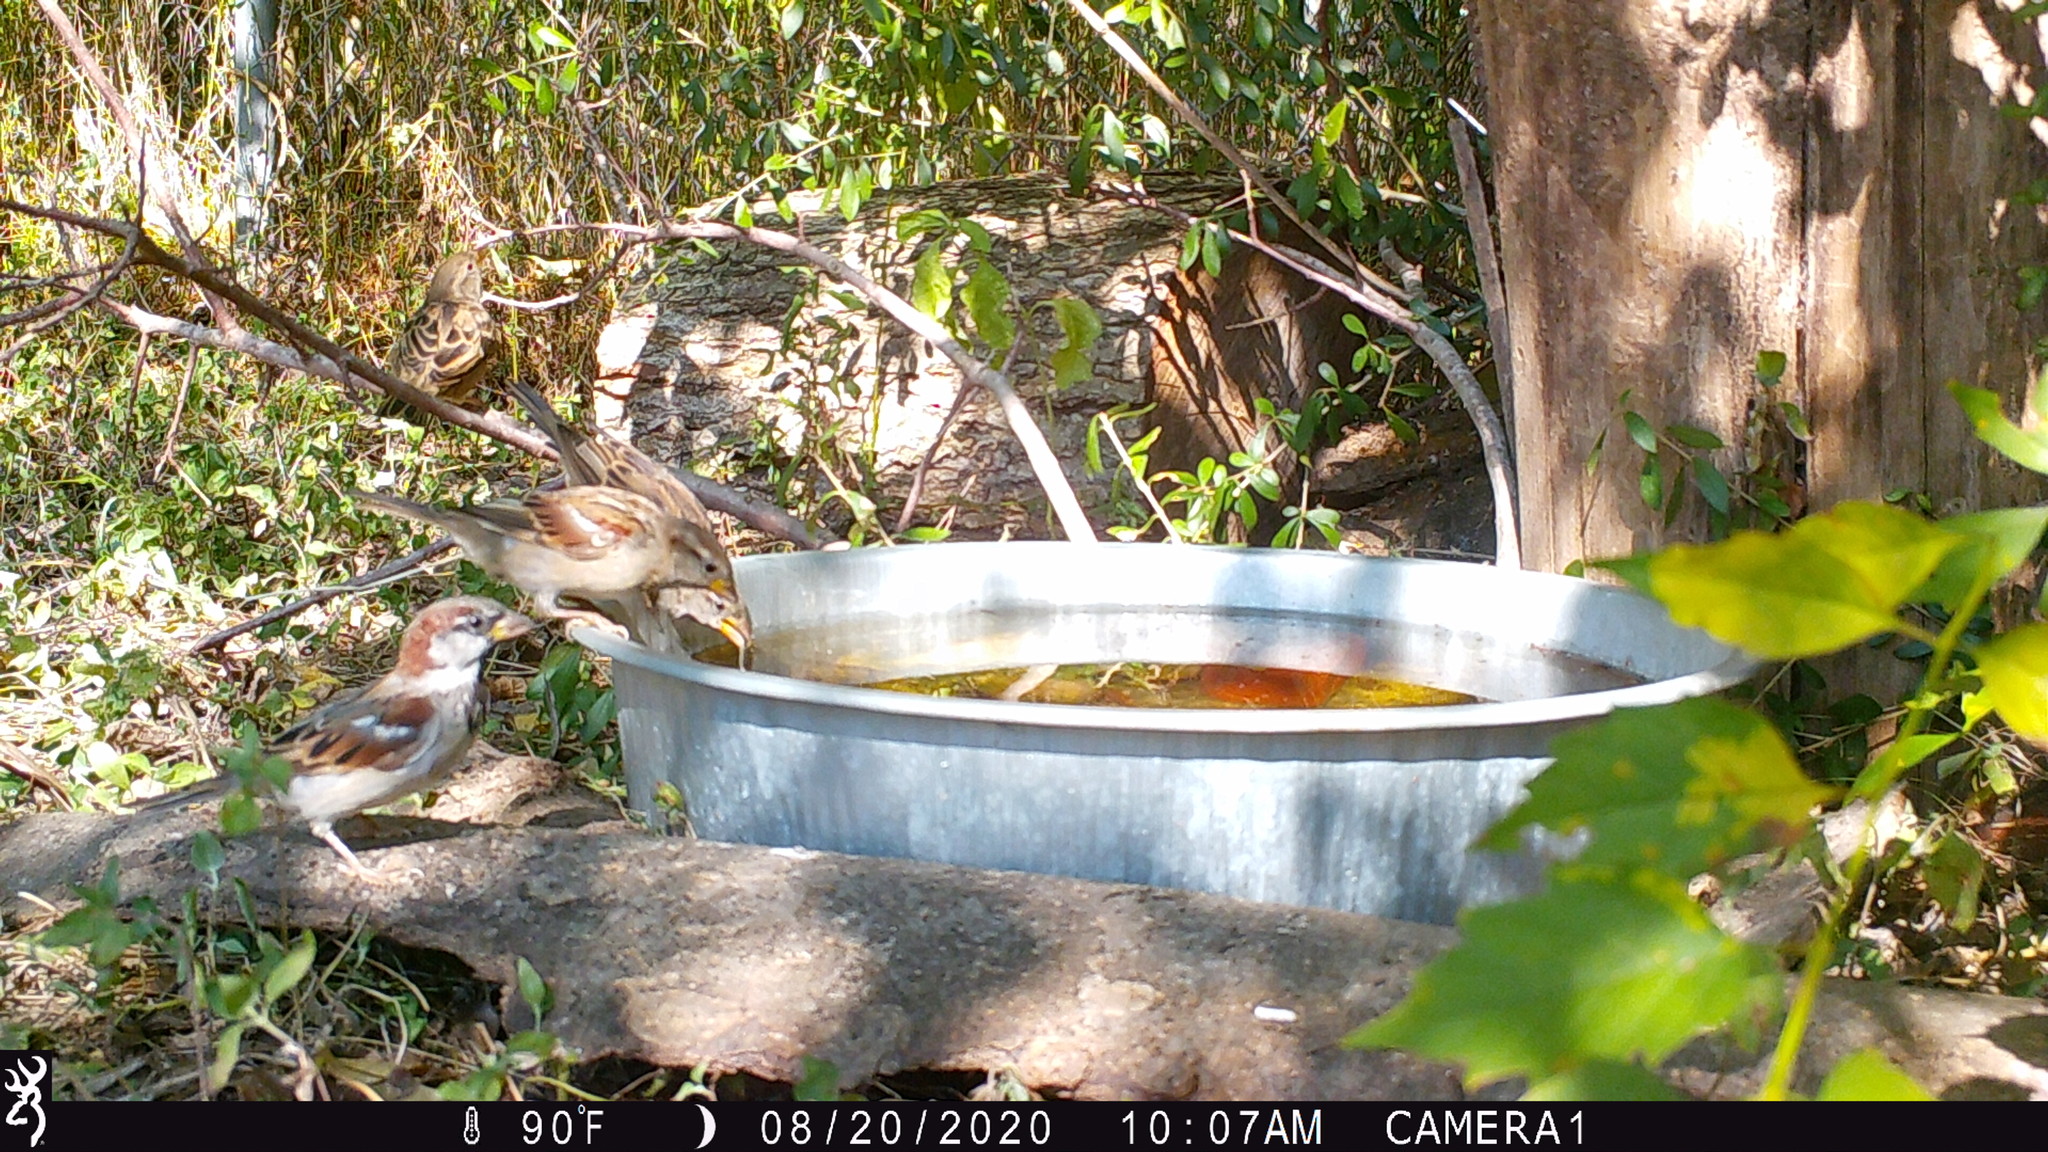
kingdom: Animalia
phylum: Chordata
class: Aves
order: Passeriformes
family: Passeridae
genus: Passer
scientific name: Passer domesticus
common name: House sparrow
